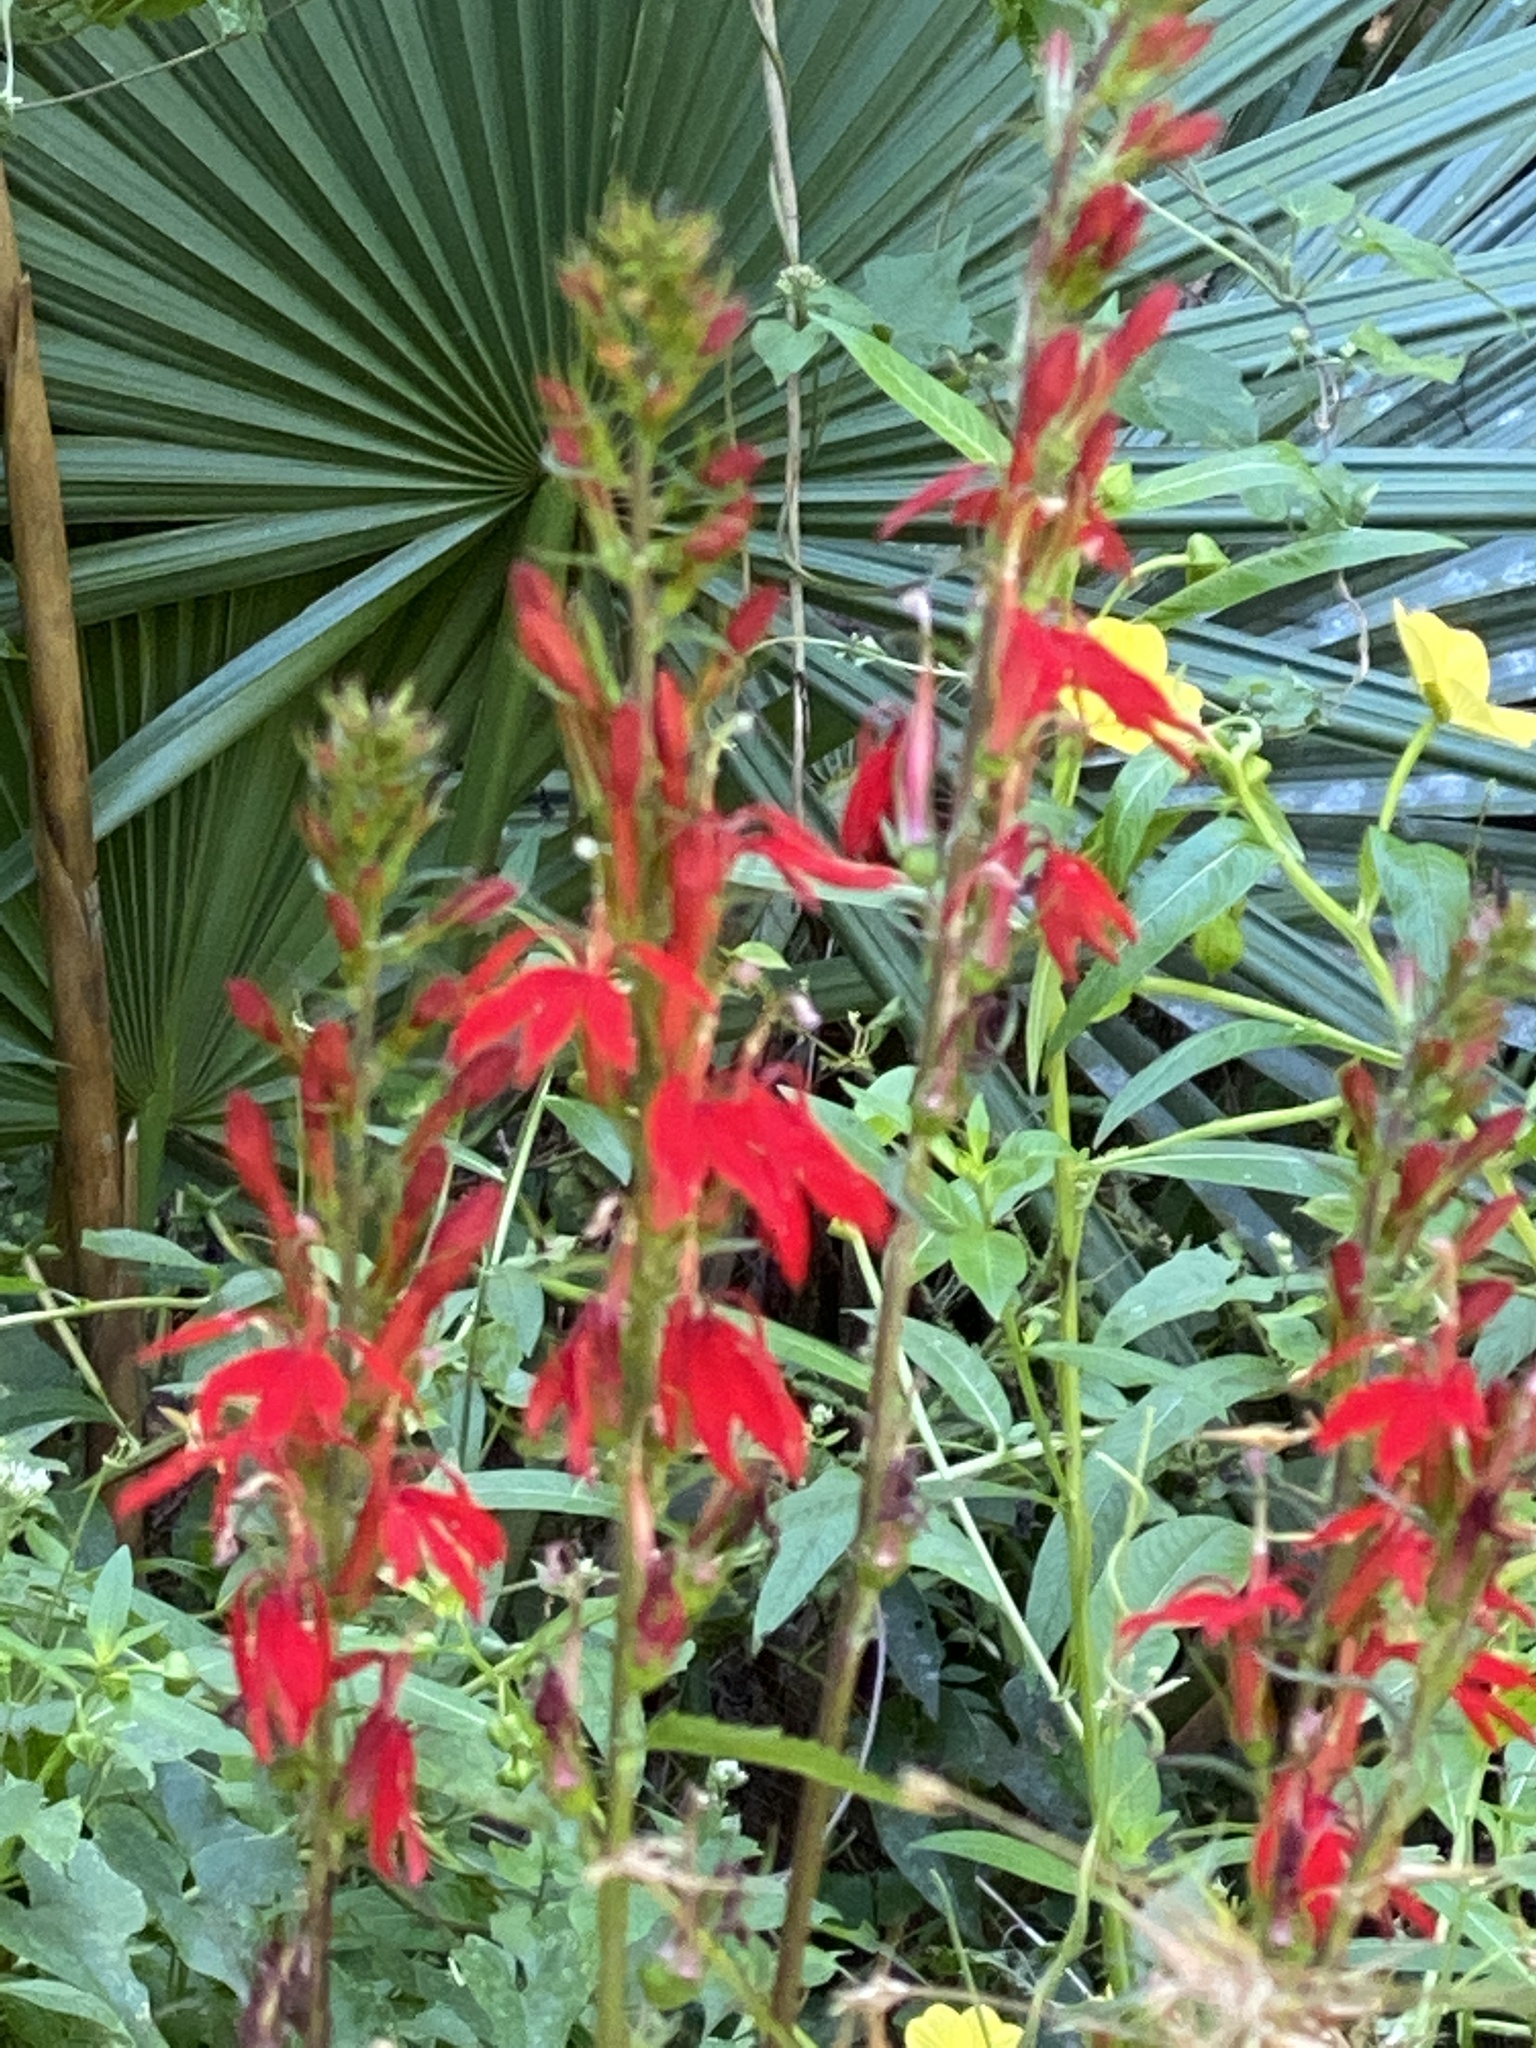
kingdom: Plantae
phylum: Tracheophyta
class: Magnoliopsida
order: Asterales
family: Campanulaceae
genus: Lobelia
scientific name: Lobelia cardinalis
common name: Cardinal flower
